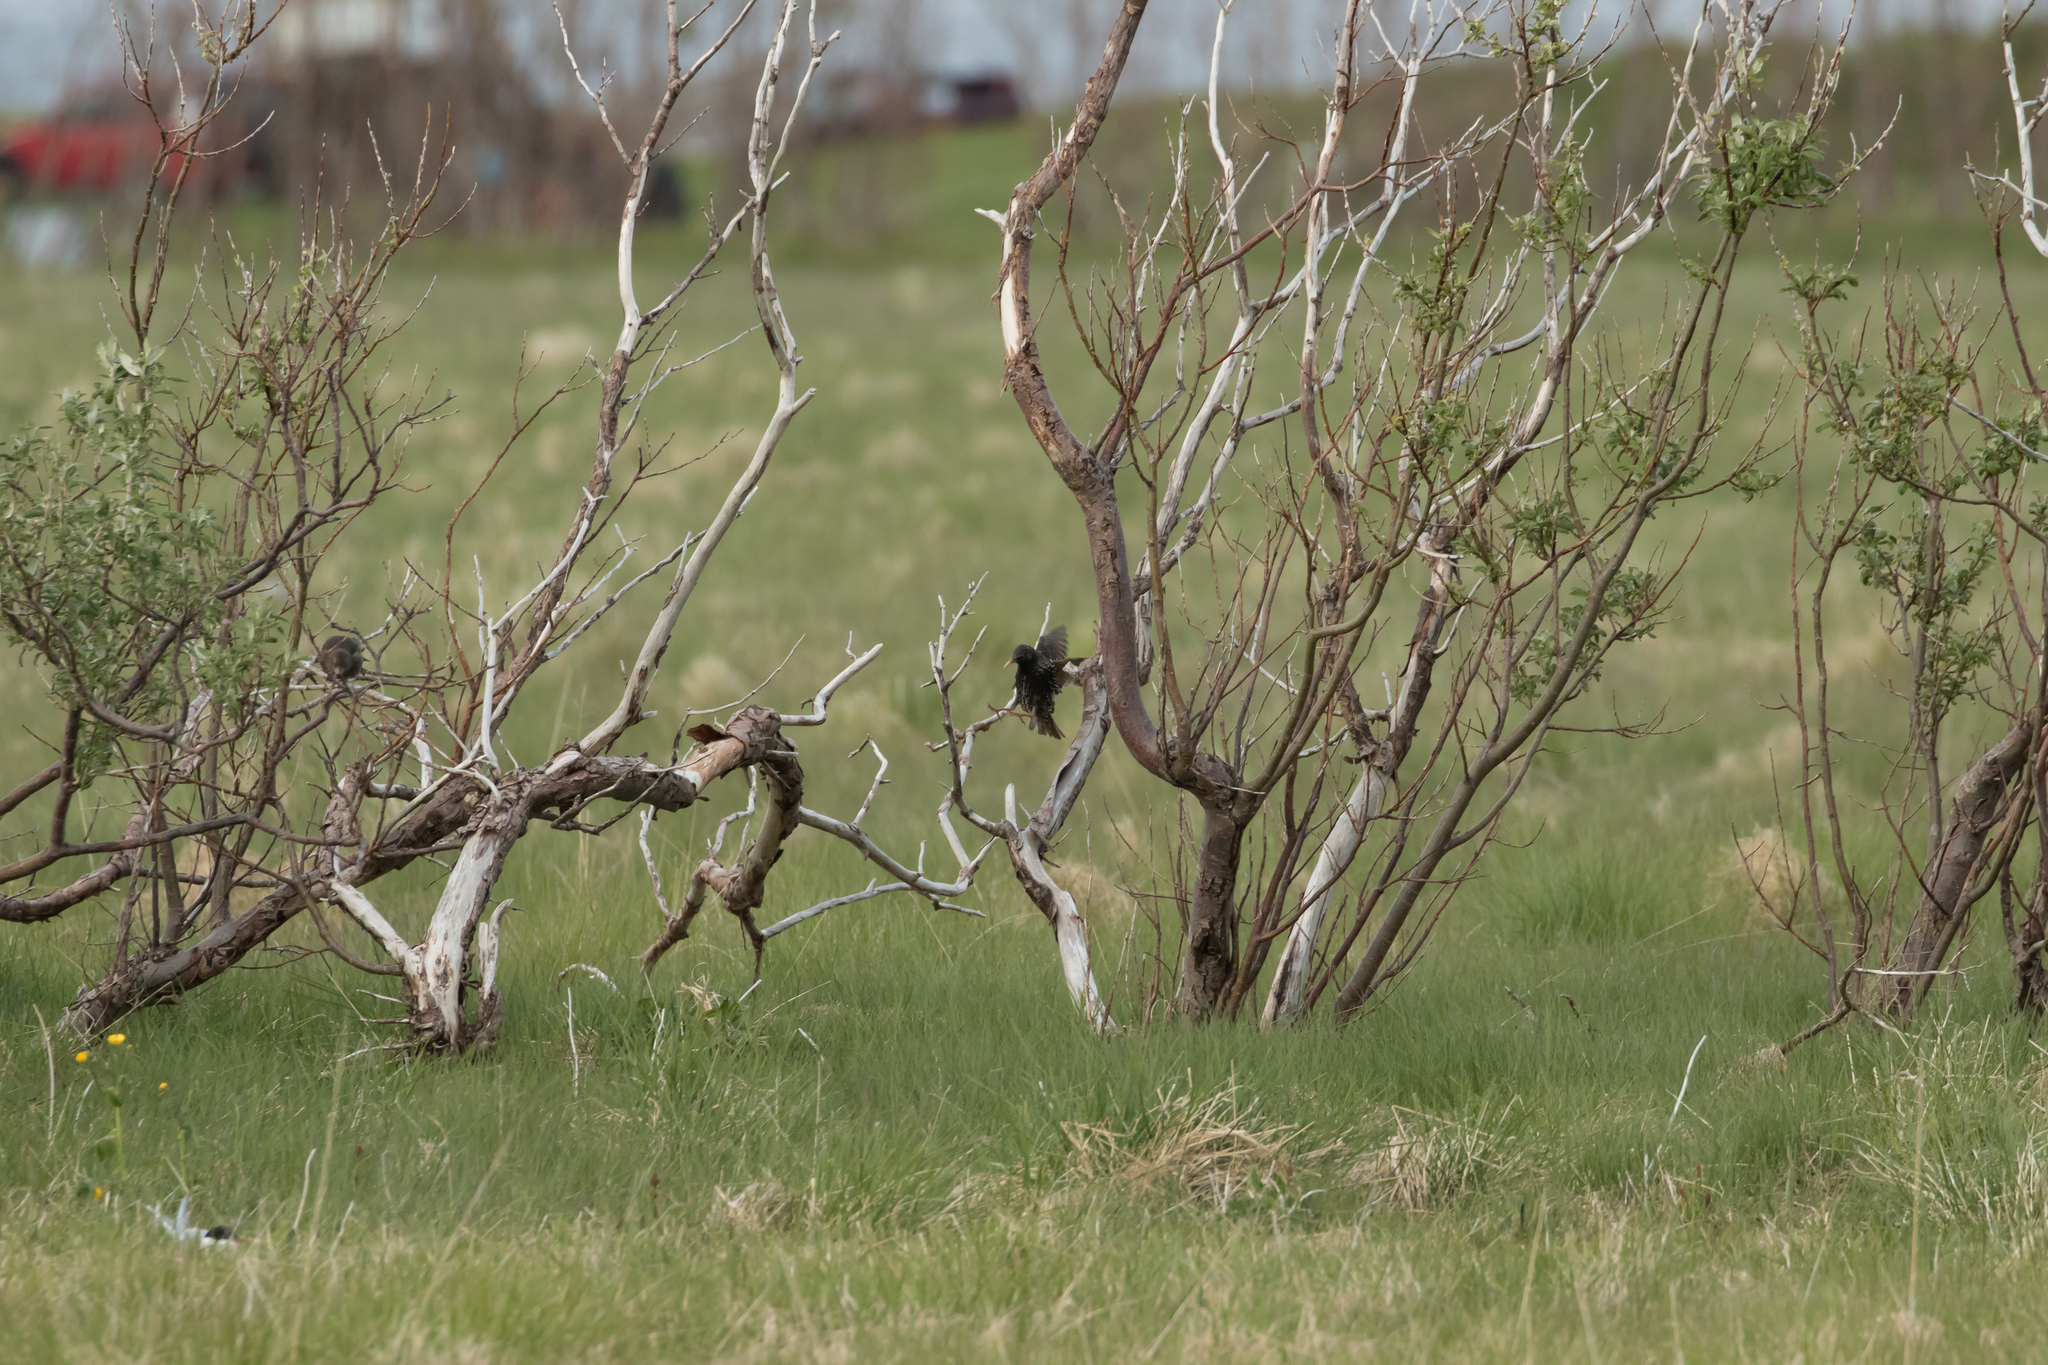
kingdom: Animalia
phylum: Chordata
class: Aves
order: Passeriformes
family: Sturnidae
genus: Sturnus
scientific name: Sturnus vulgaris
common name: Common starling
